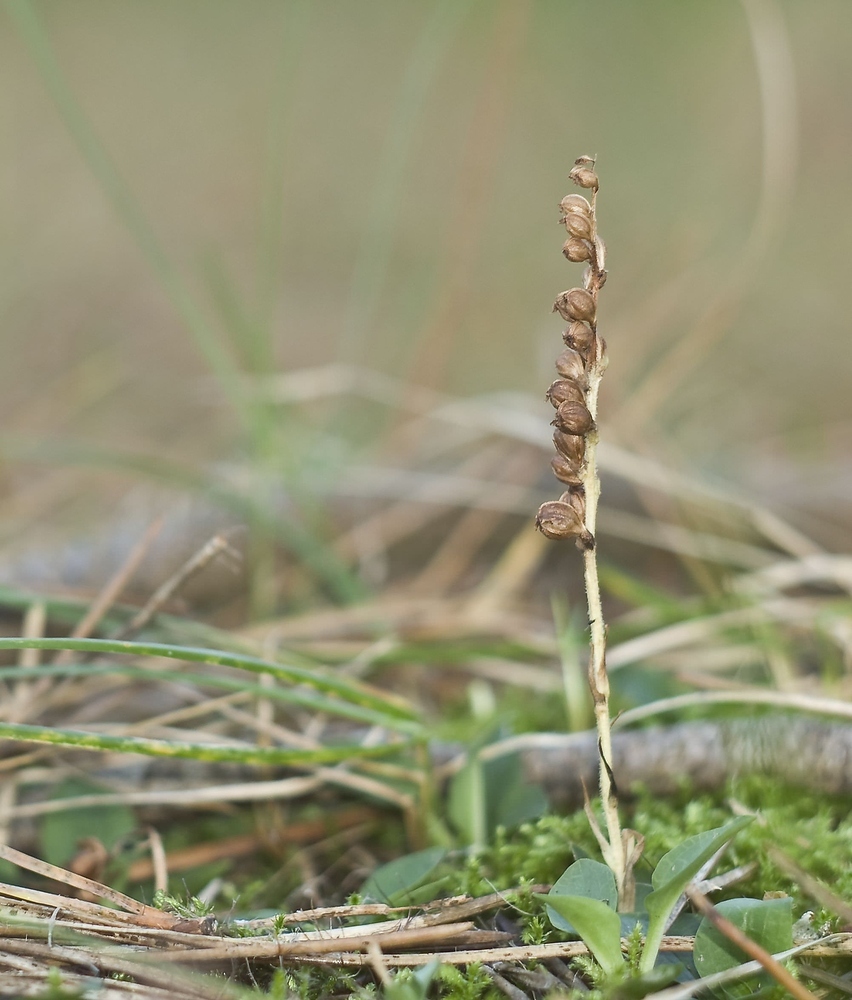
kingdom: Plantae
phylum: Tracheophyta
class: Liliopsida
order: Asparagales
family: Orchidaceae
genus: Goodyera
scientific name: Goodyera repens
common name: Creeping lady's-tresses
